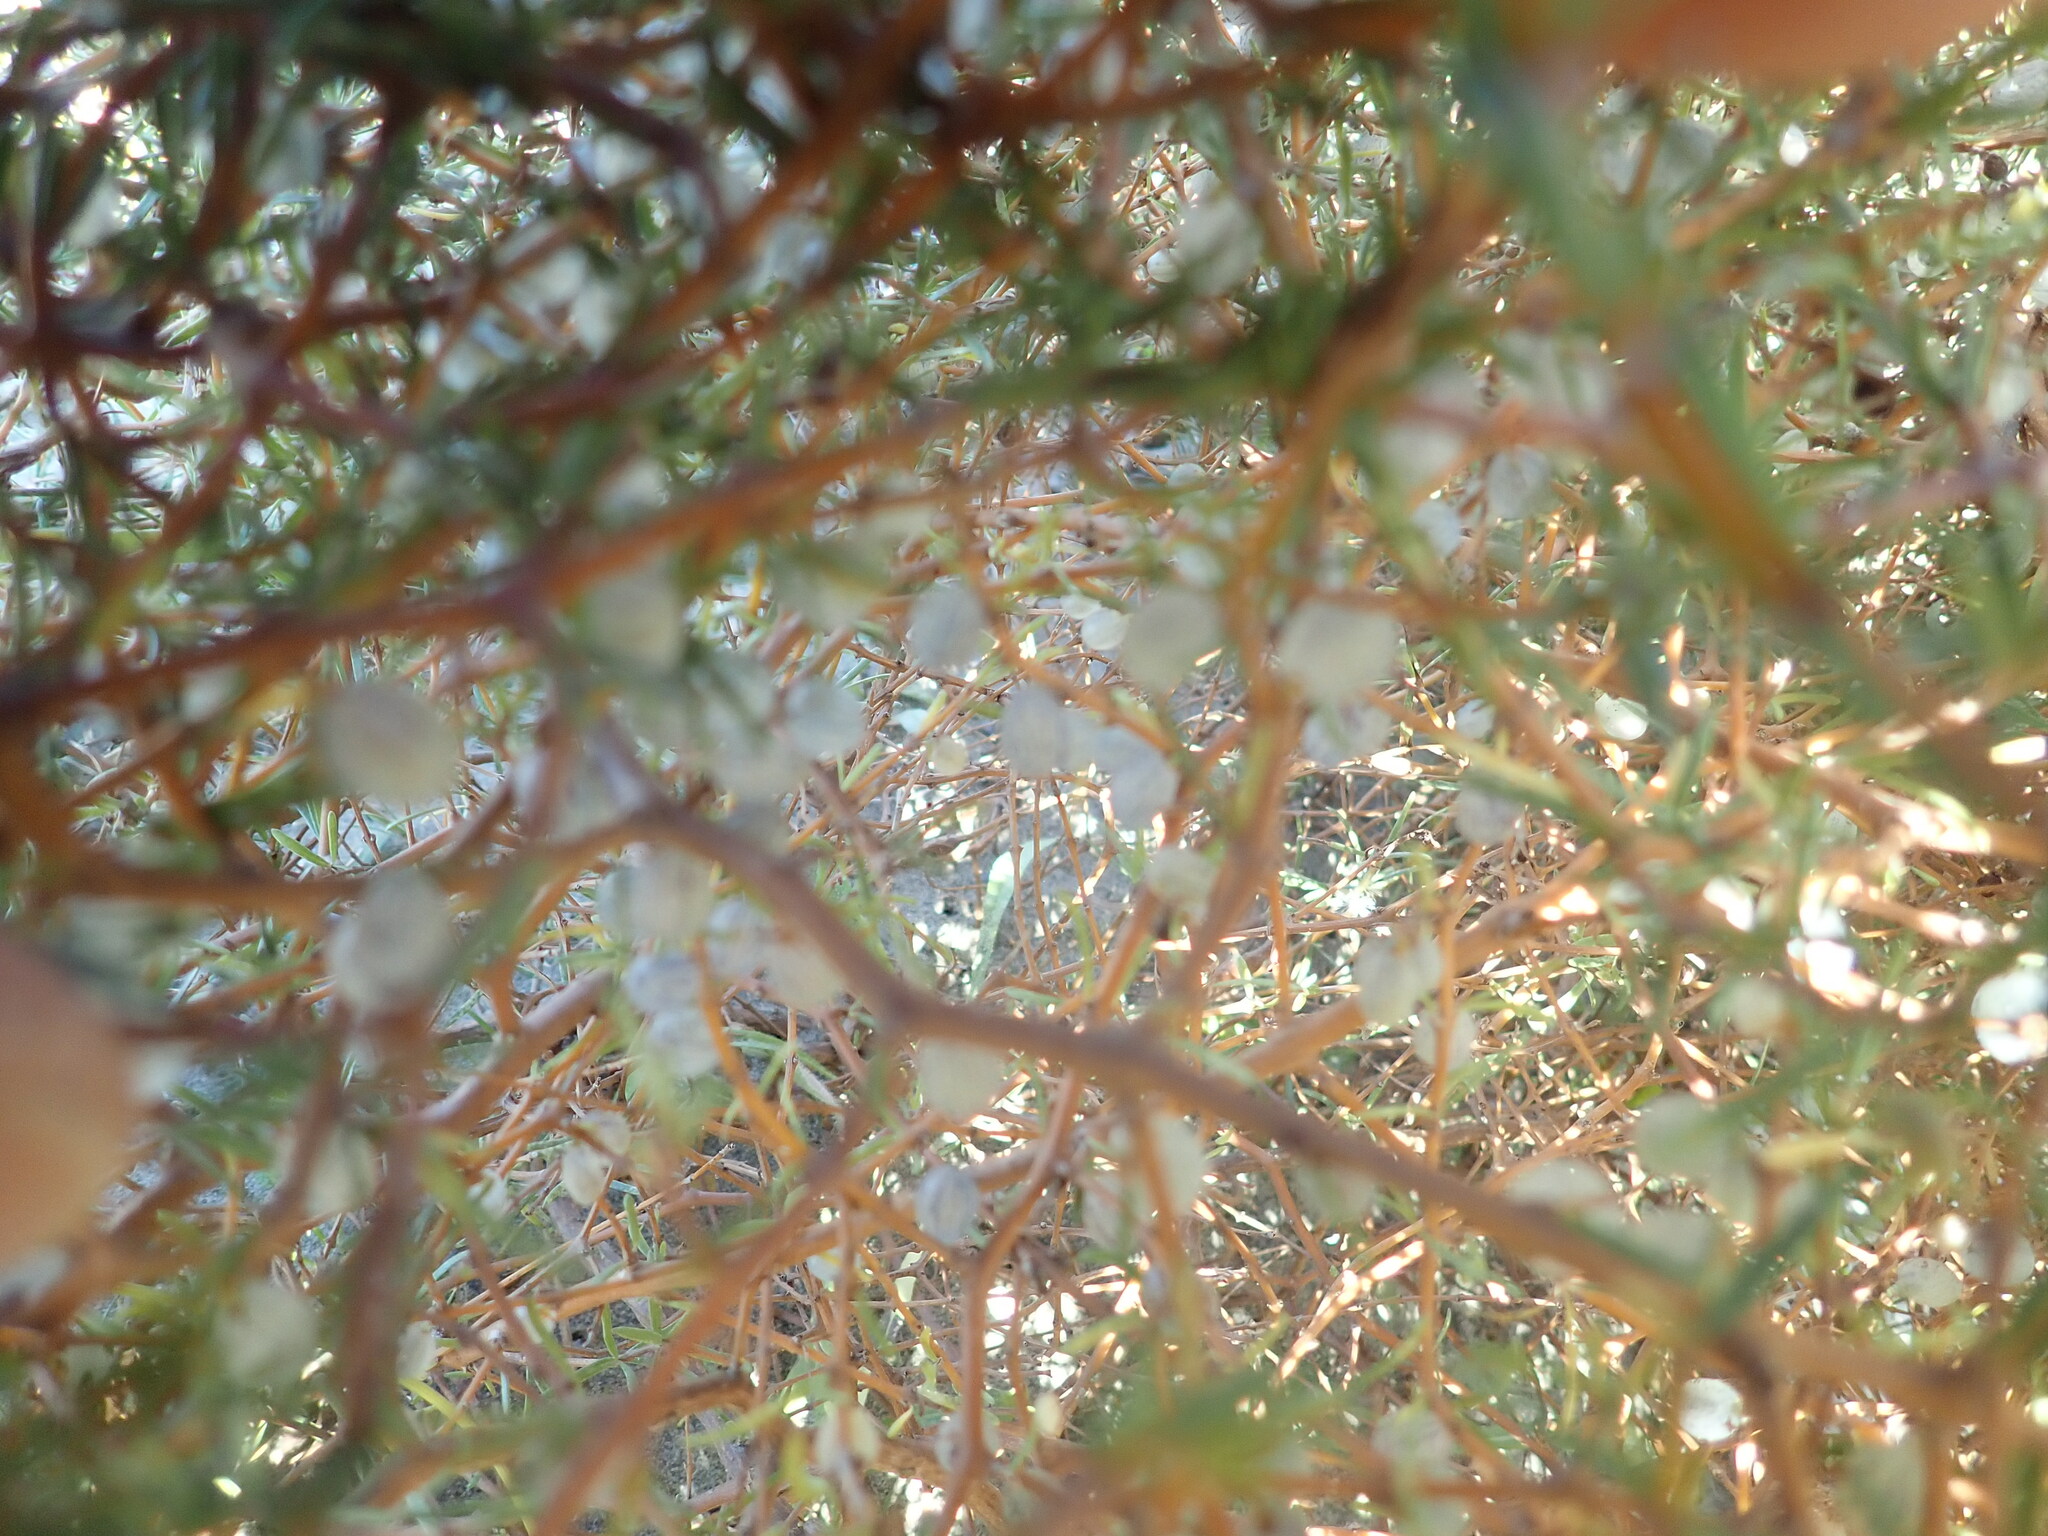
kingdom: Plantae
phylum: Tracheophyta
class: Magnoliopsida
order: Gentianales
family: Rubiaceae
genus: Coprosma
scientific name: Coprosma acerosa
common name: Sand coprosma
